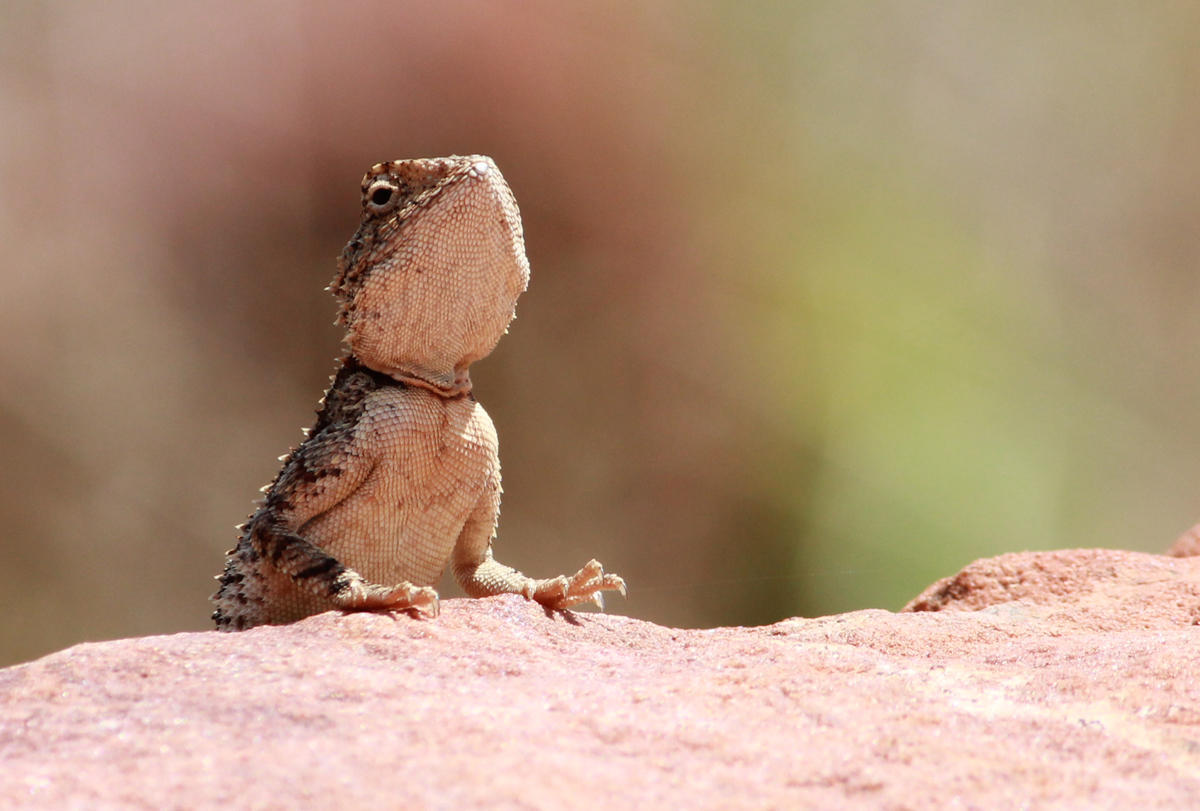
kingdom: Animalia
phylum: Chordata
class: Squamata
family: Agamidae
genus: Agama
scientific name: Agama armata
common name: Northern ground agama
